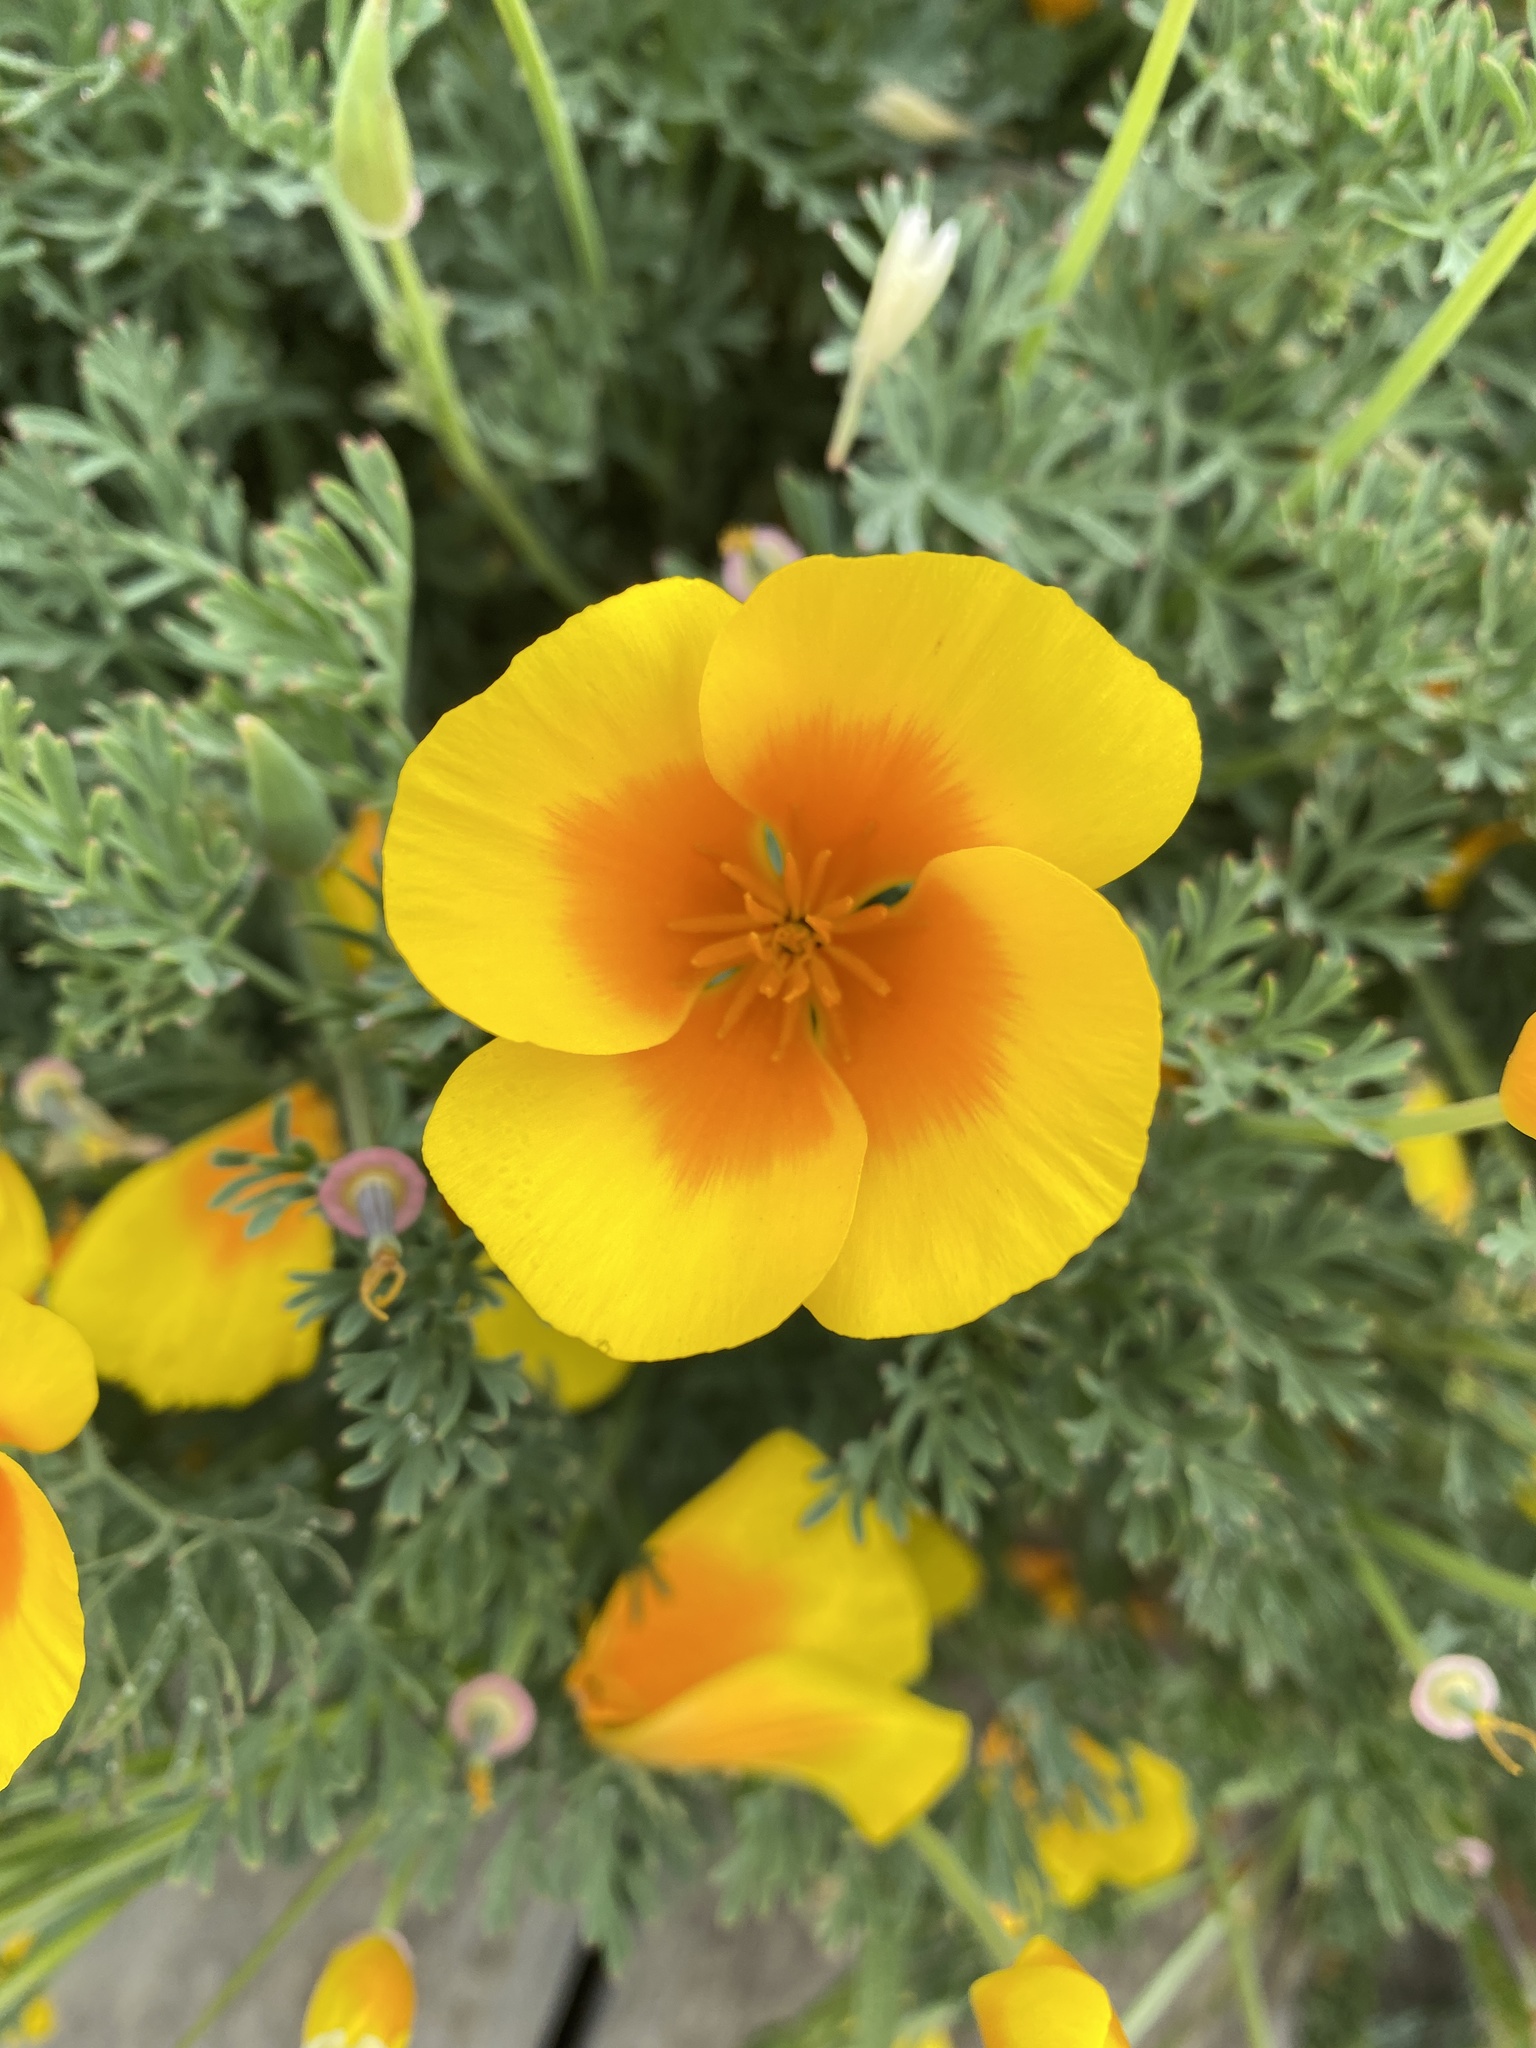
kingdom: Plantae
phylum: Tracheophyta
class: Magnoliopsida
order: Ranunculales
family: Papaveraceae
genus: Eschscholzia
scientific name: Eschscholzia californica
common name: California poppy
